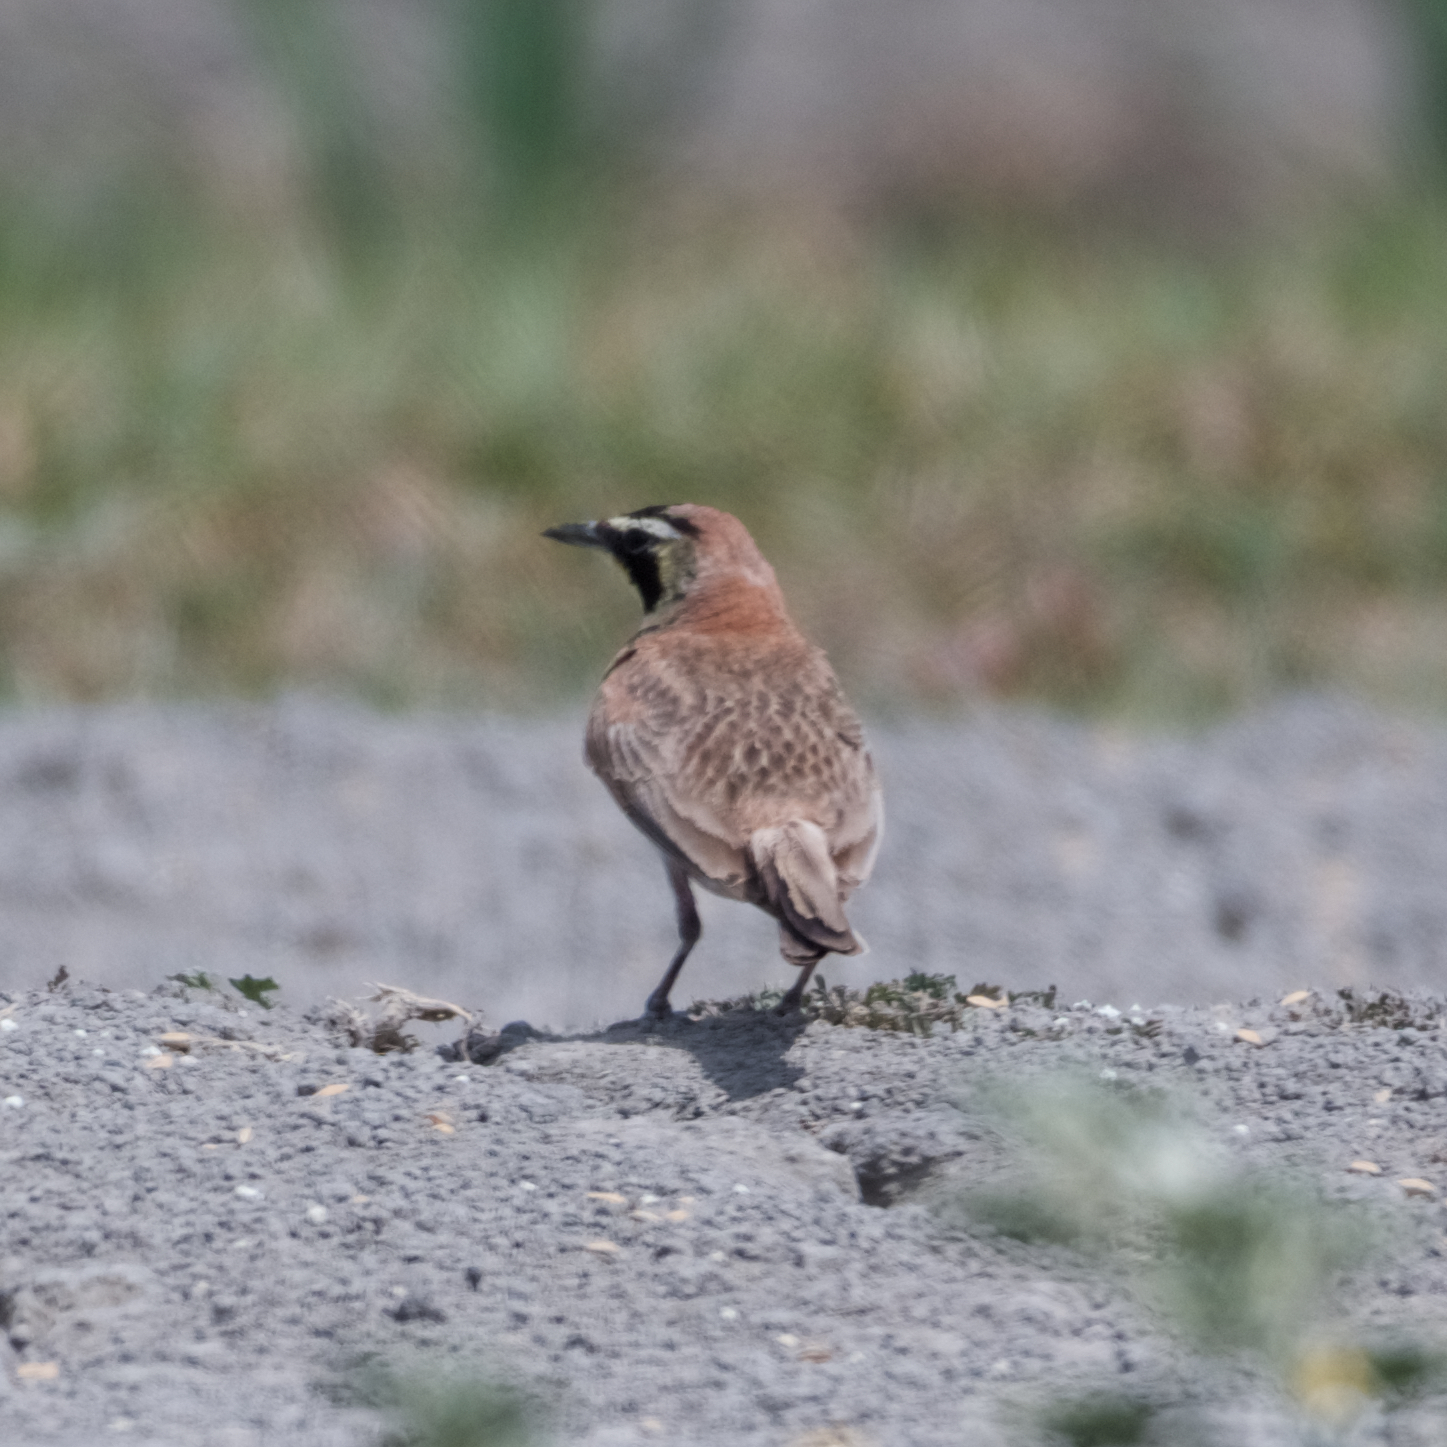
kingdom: Animalia
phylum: Chordata
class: Aves
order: Passeriformes
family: Alaudidae
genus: Eremophila
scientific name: Eremophila alpestris
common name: Horned lark
